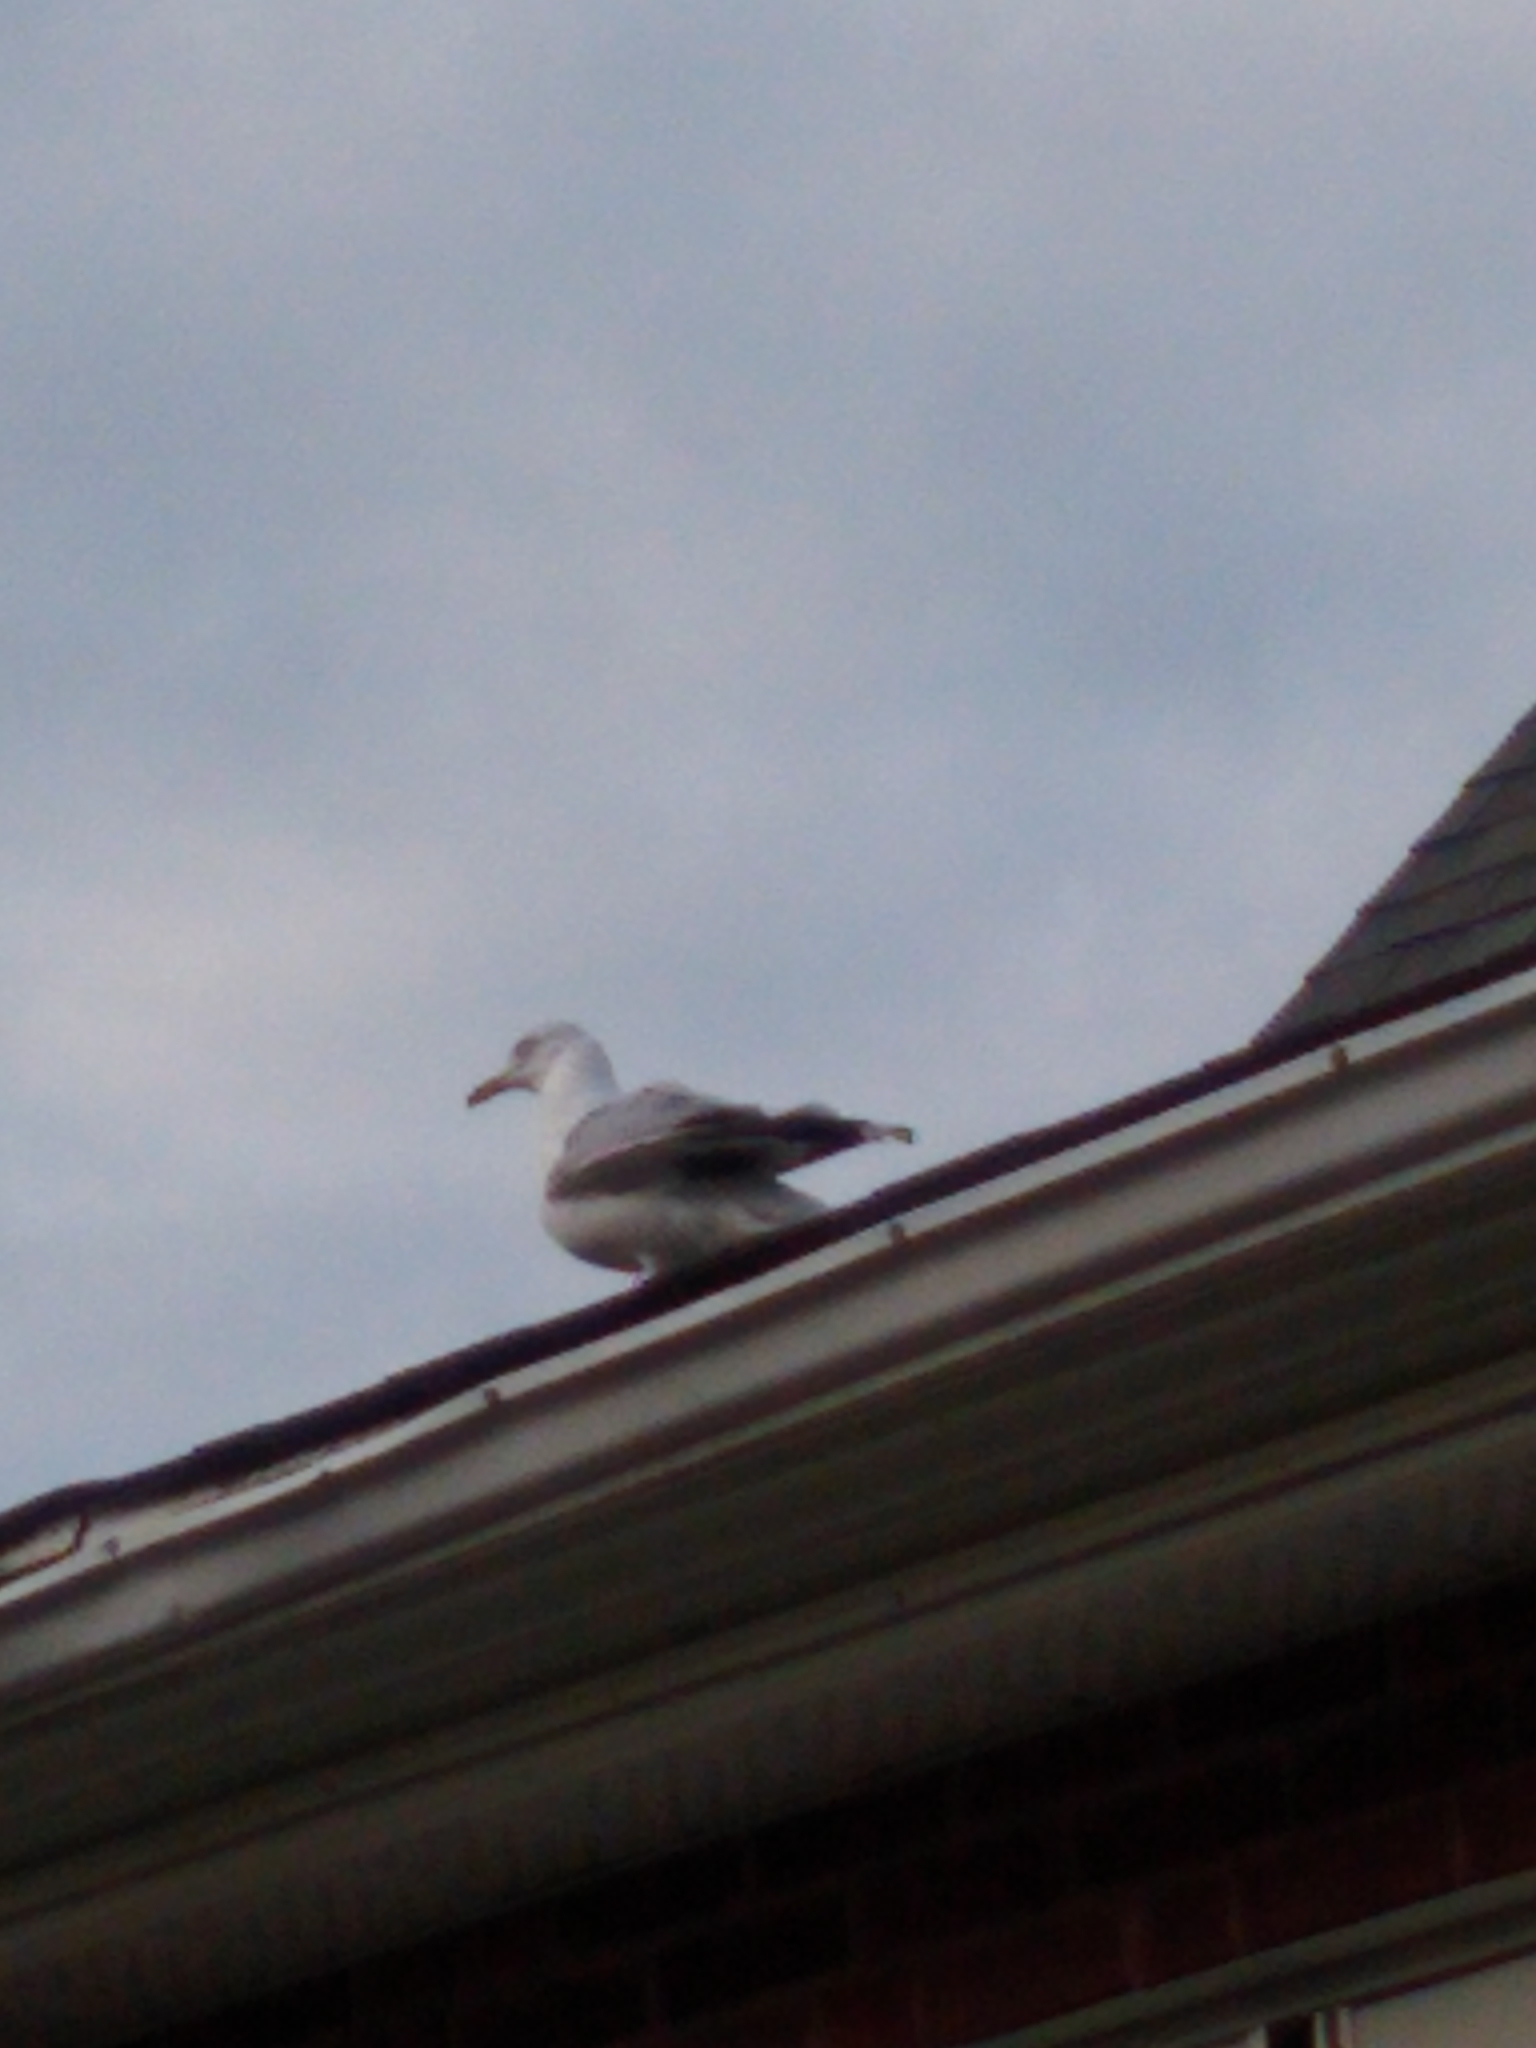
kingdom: Animalia
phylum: Chordata
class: Aves
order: Charadriiformes
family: Laridae
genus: Larus
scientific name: Larus delawarensis
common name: Ring-billed gull
